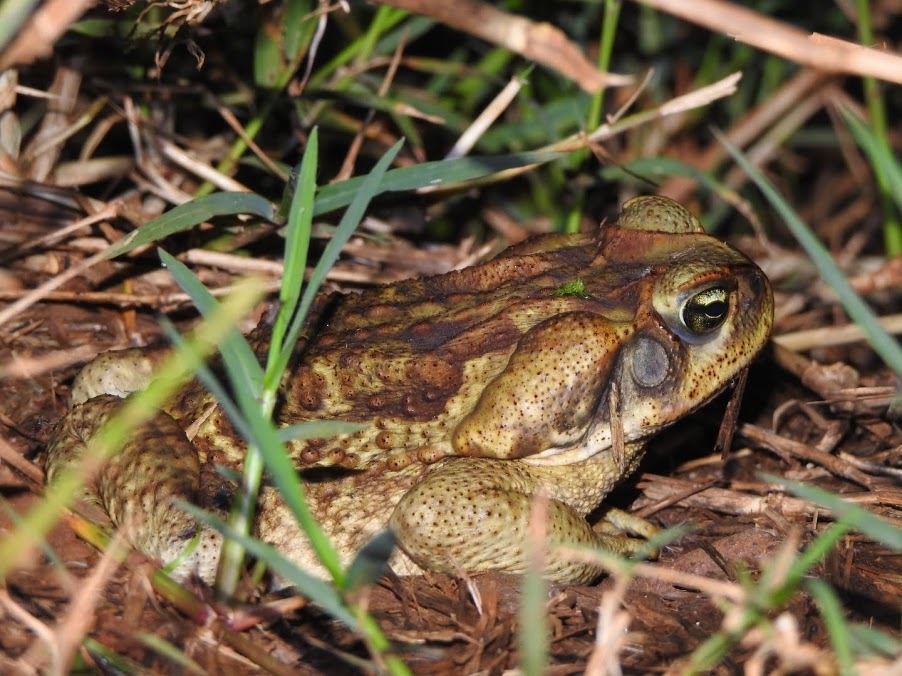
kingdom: Animalia
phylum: Chordata
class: Amphibia
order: Anura
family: Bufonidae
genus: Rhinella
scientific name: Rhinella diptycha
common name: Cope's toad
